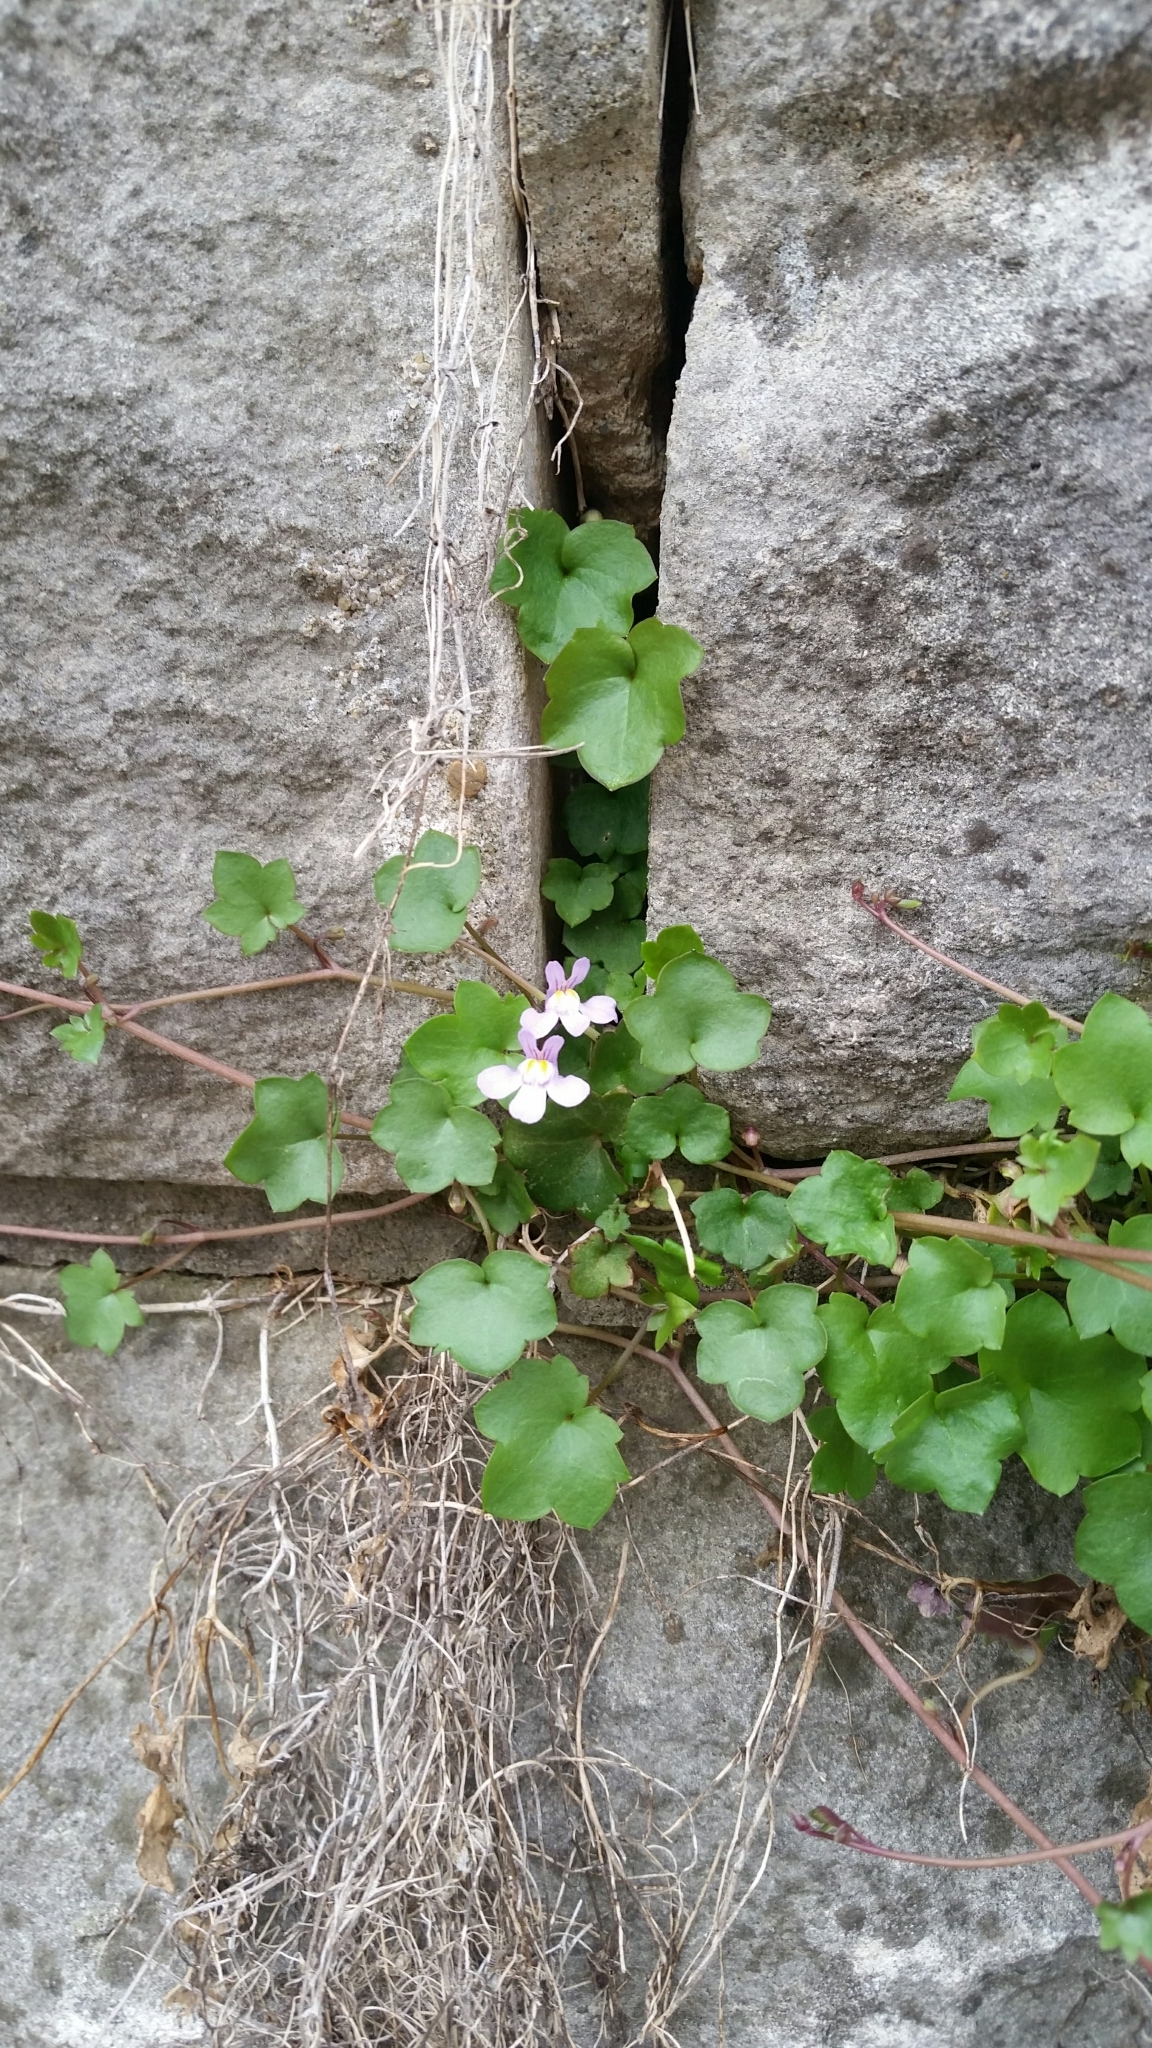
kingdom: Plantae
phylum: Tracheophyta
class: Magnoliopsida
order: Lamiales
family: Plantaginaceae
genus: Cymbalaria
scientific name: Cymbalaria muralis
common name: Ivy-leaved toadflax
